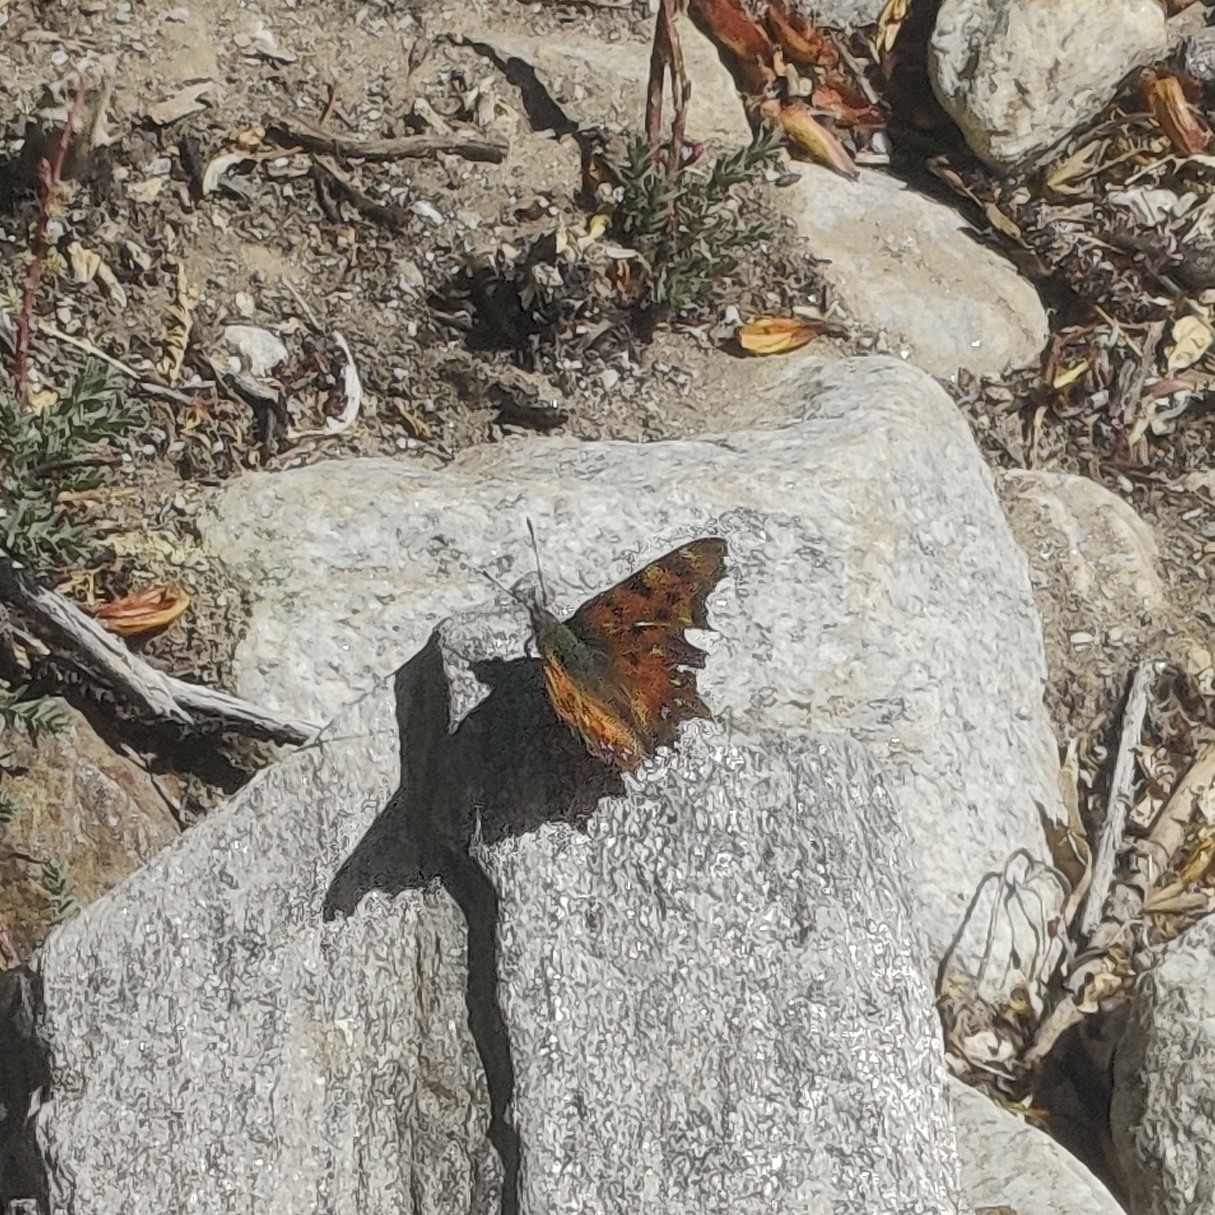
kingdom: Animalia
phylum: Arthropoda
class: Insecta
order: Lepidoptera
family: Nymphalidae
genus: Polygonia
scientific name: Polygonia c-album
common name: Comma
